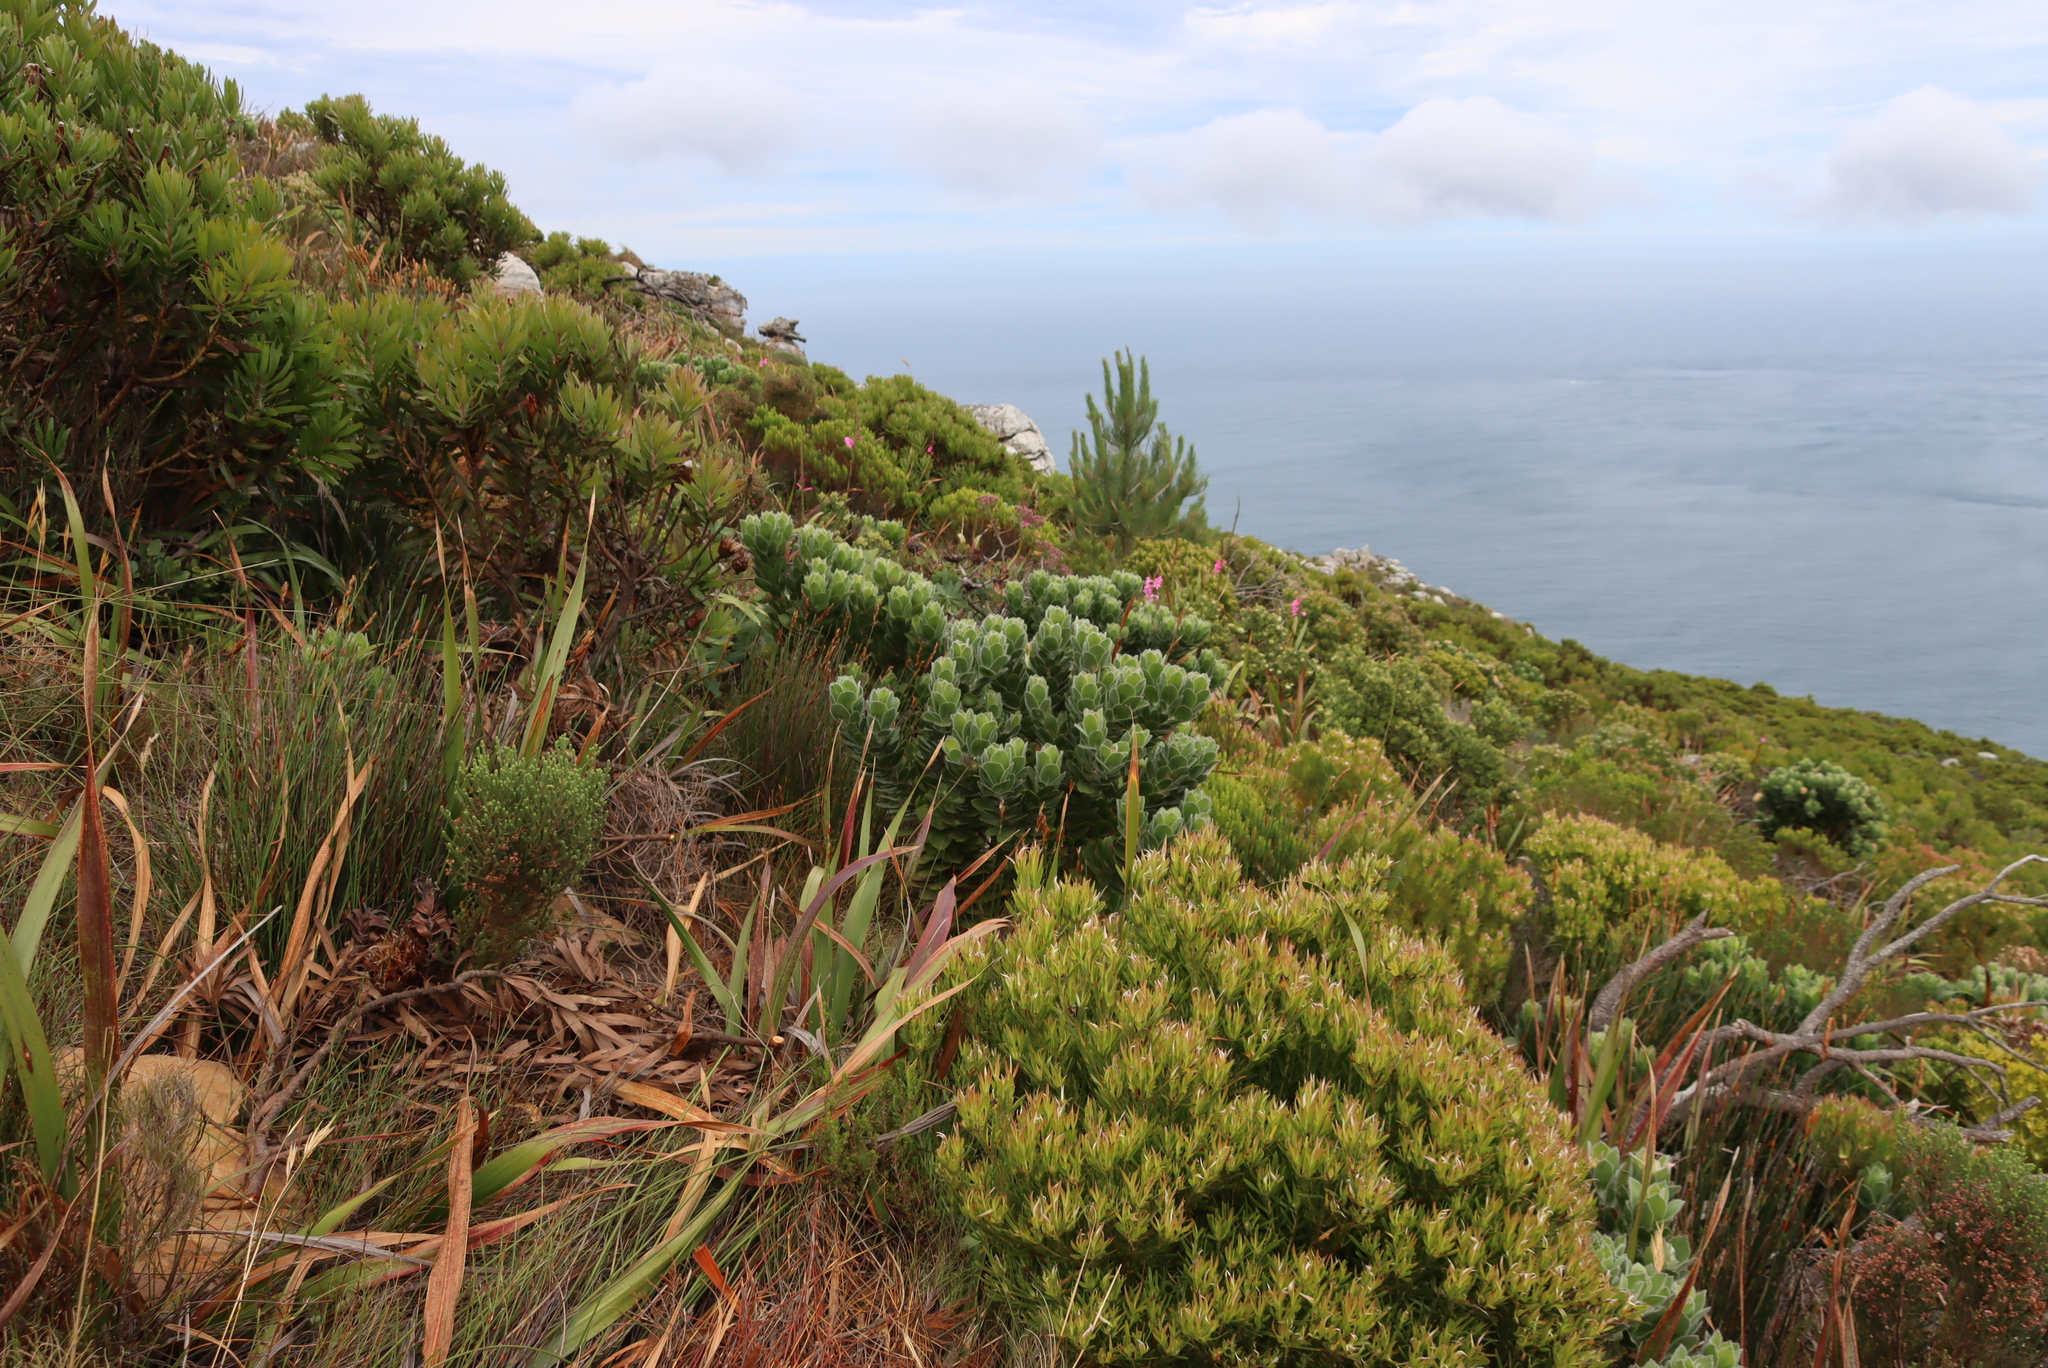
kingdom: Plantae
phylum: Tracheophyta
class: Magnoliopsida
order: Proteales
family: Proteaceae
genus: Leucospermum
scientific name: Leucospermum conocarpodendron
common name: Tree pincushion
